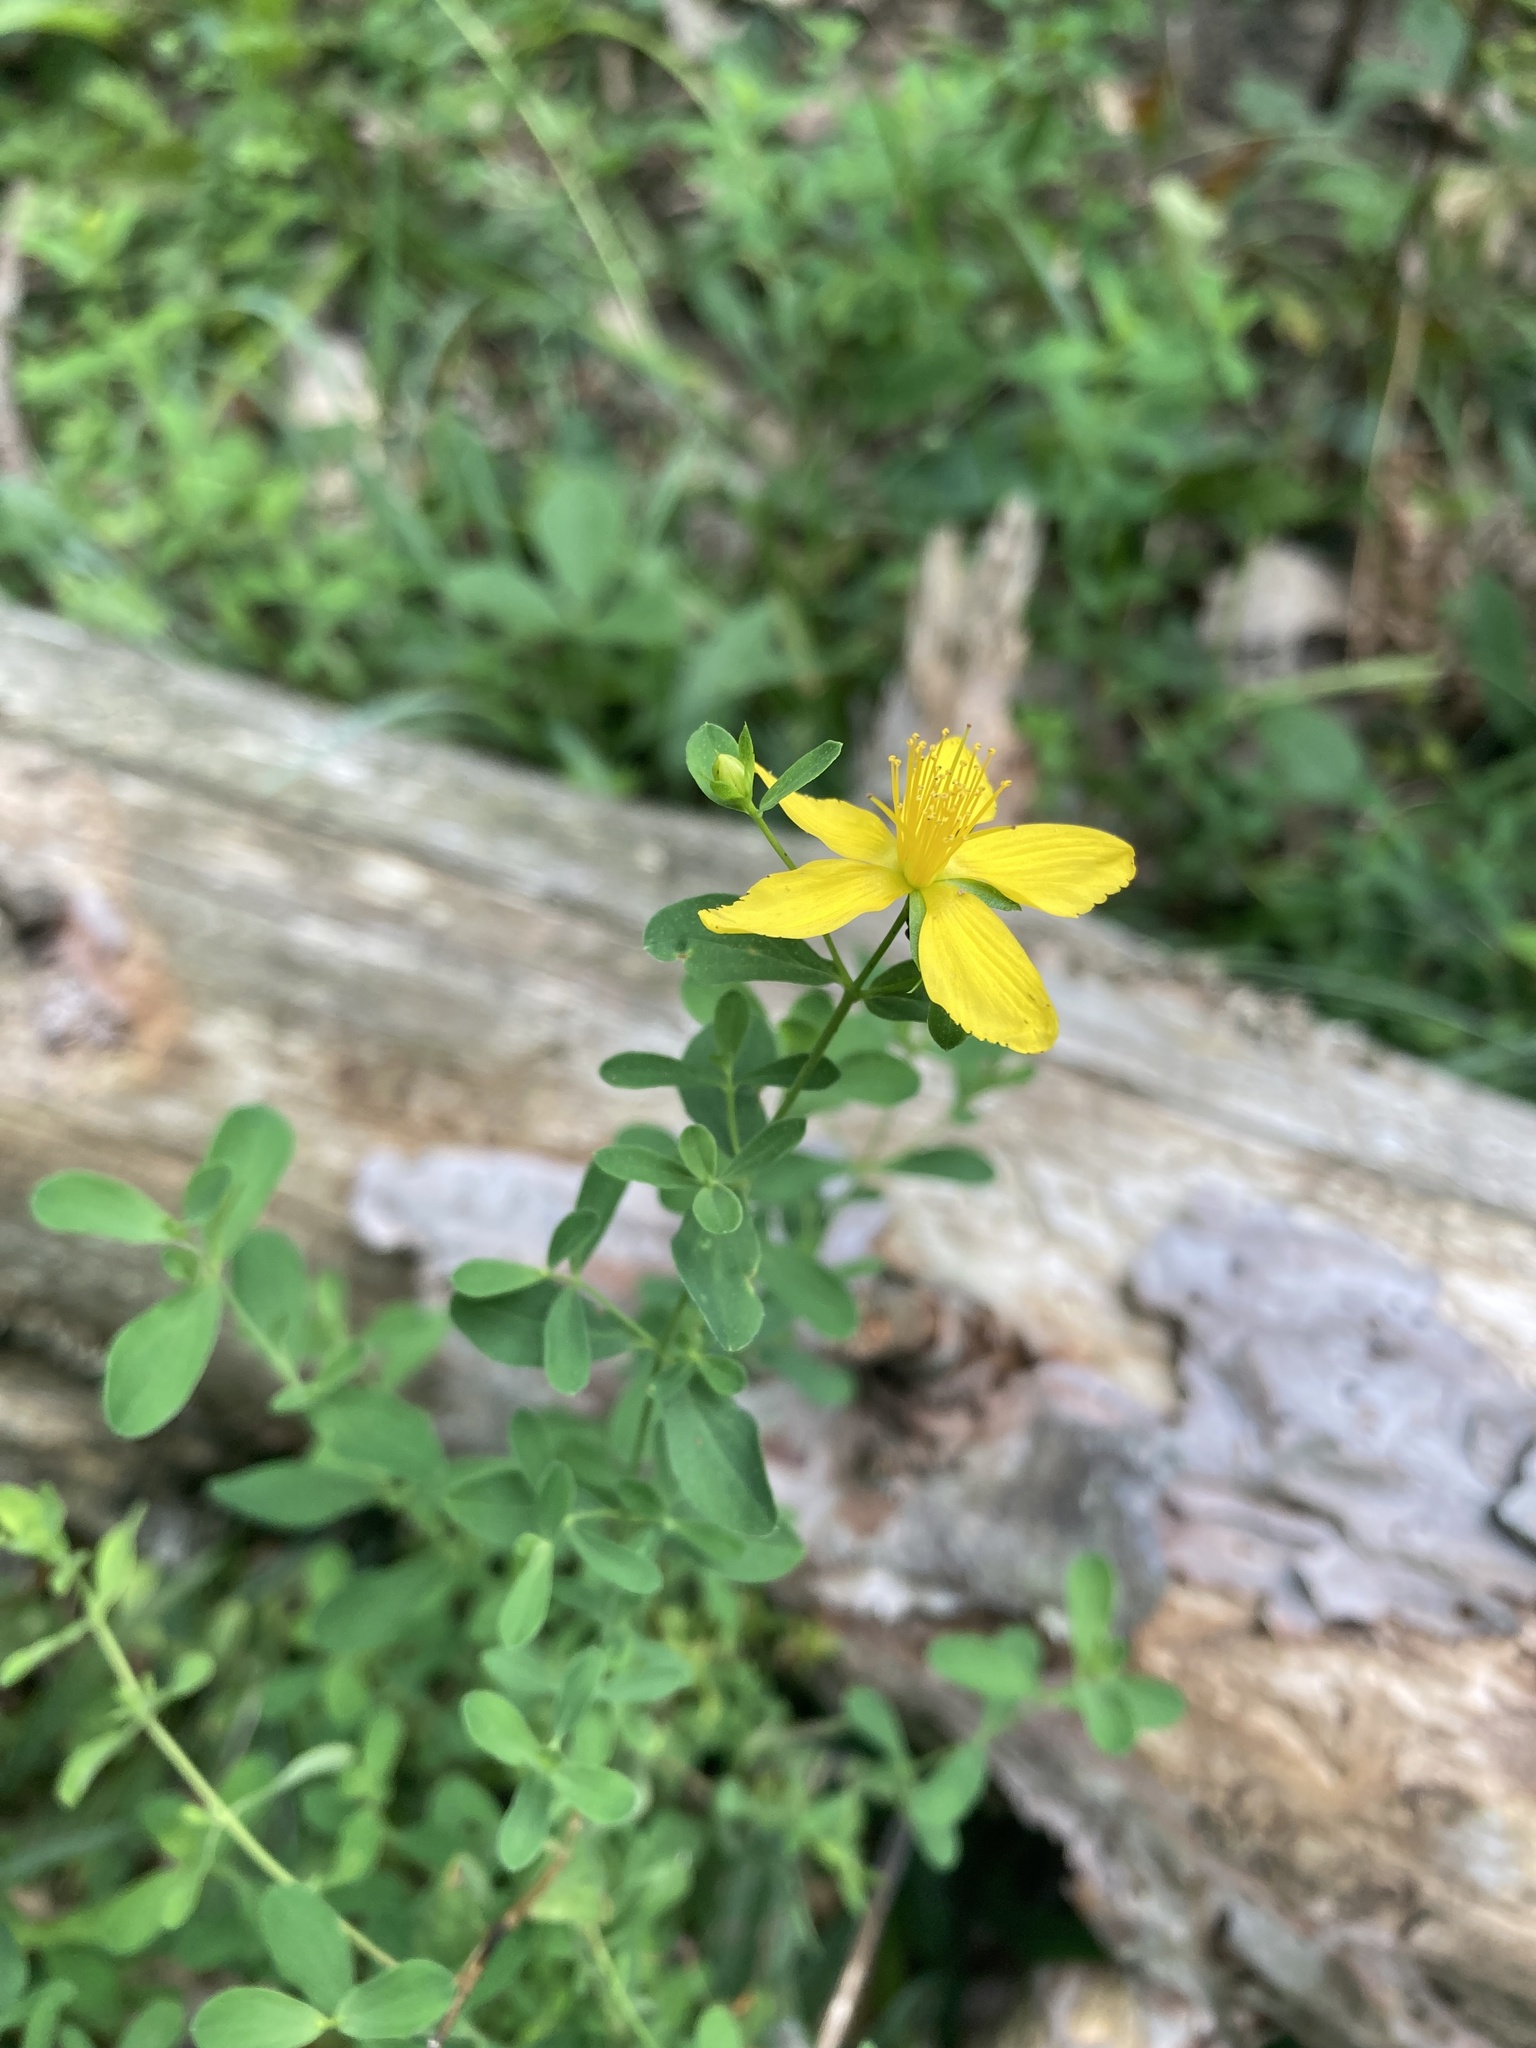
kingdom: Plantae
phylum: Tracheophyta
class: Magnoliopsida
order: Malpighiales
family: Hypericaceae
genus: Hypericum
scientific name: Hypericum perforatum
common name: Common st. johnswort
